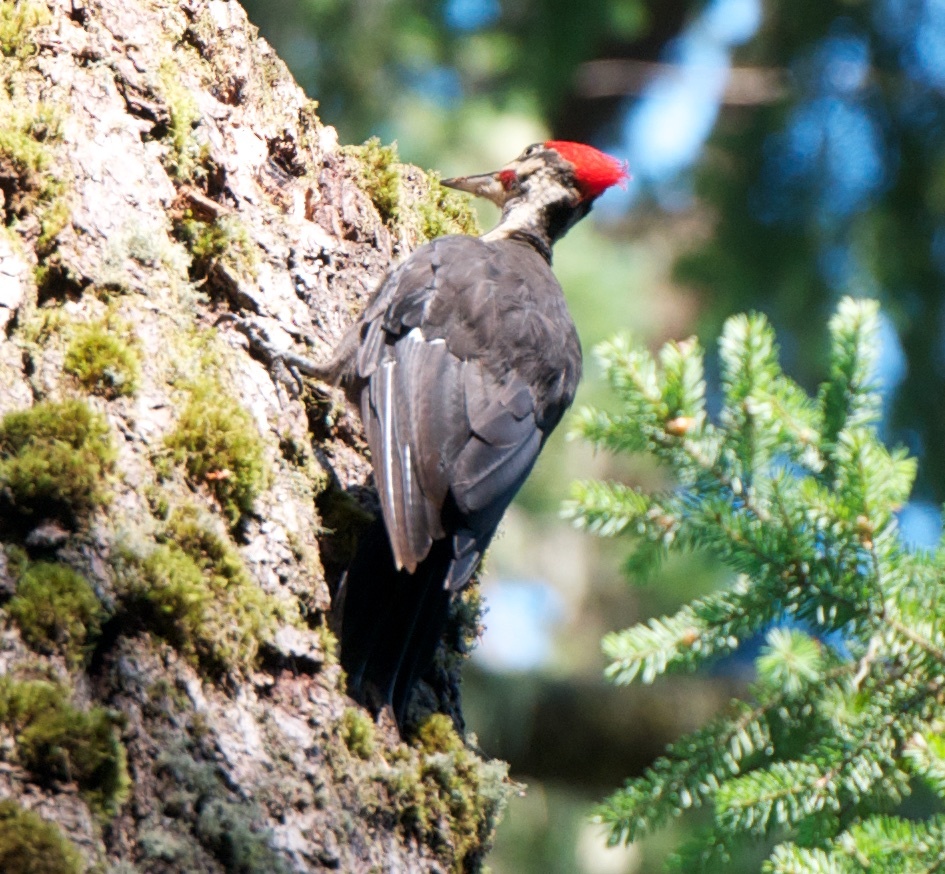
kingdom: Animalia
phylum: Chordata
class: Aves
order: Piciformes
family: Picidae
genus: Dryocopus
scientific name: Dryocopus pileatus
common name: Pileated woodpecker
